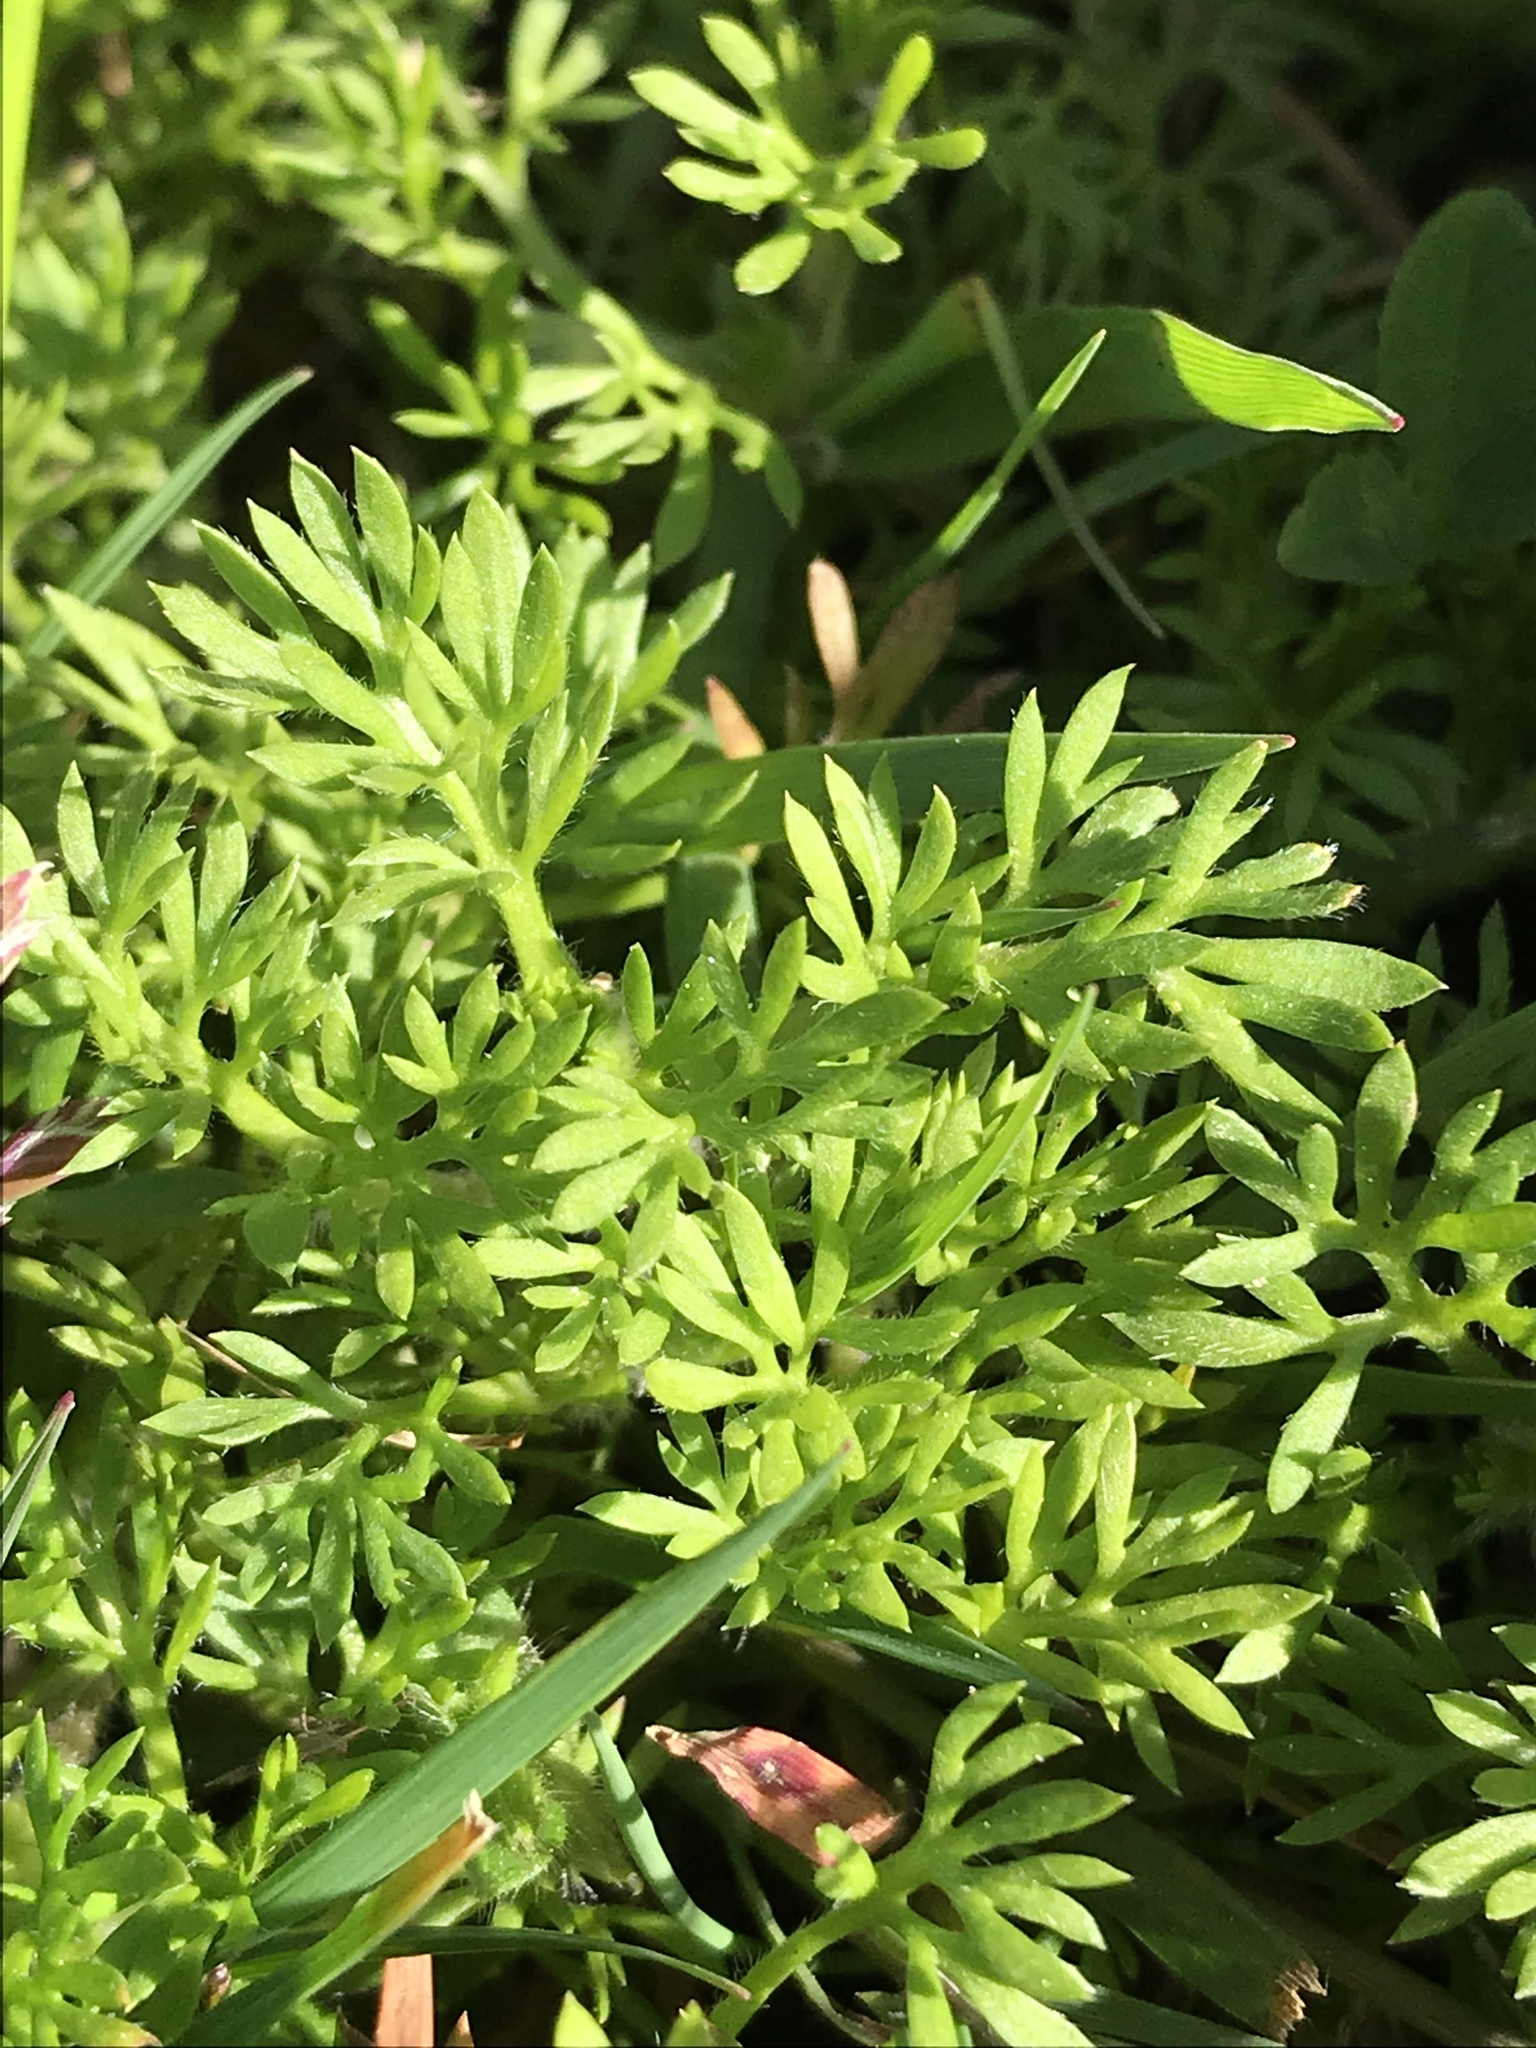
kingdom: Plantae
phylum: Tracheophyta
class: Magnoliopsida
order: Asterales
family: Asteraceae
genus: Soliva
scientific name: Soliva sessilis
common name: Field burrweed
